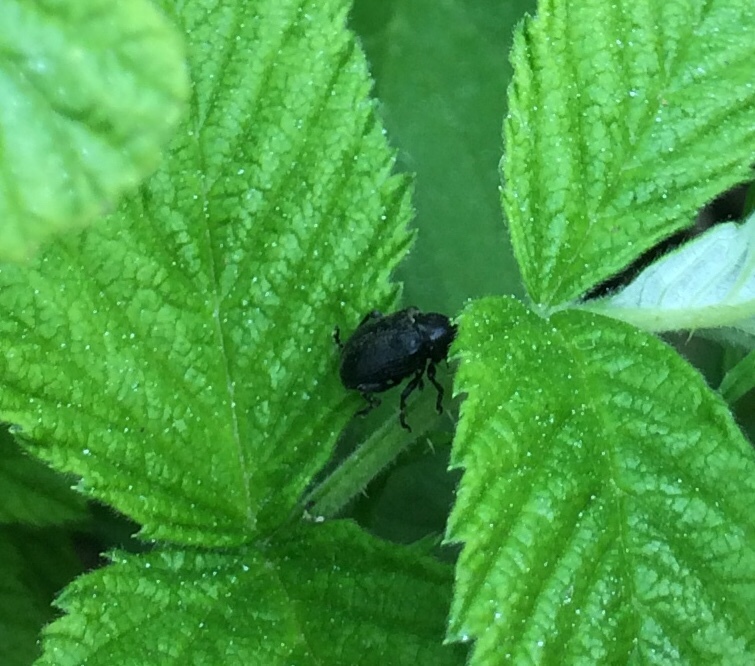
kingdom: Animalia
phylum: Arthropoda
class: Insecta
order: Coleoptera
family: Chrysomelidae
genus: Bromius
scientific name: Bromius obscurus
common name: Western grape rootworm
